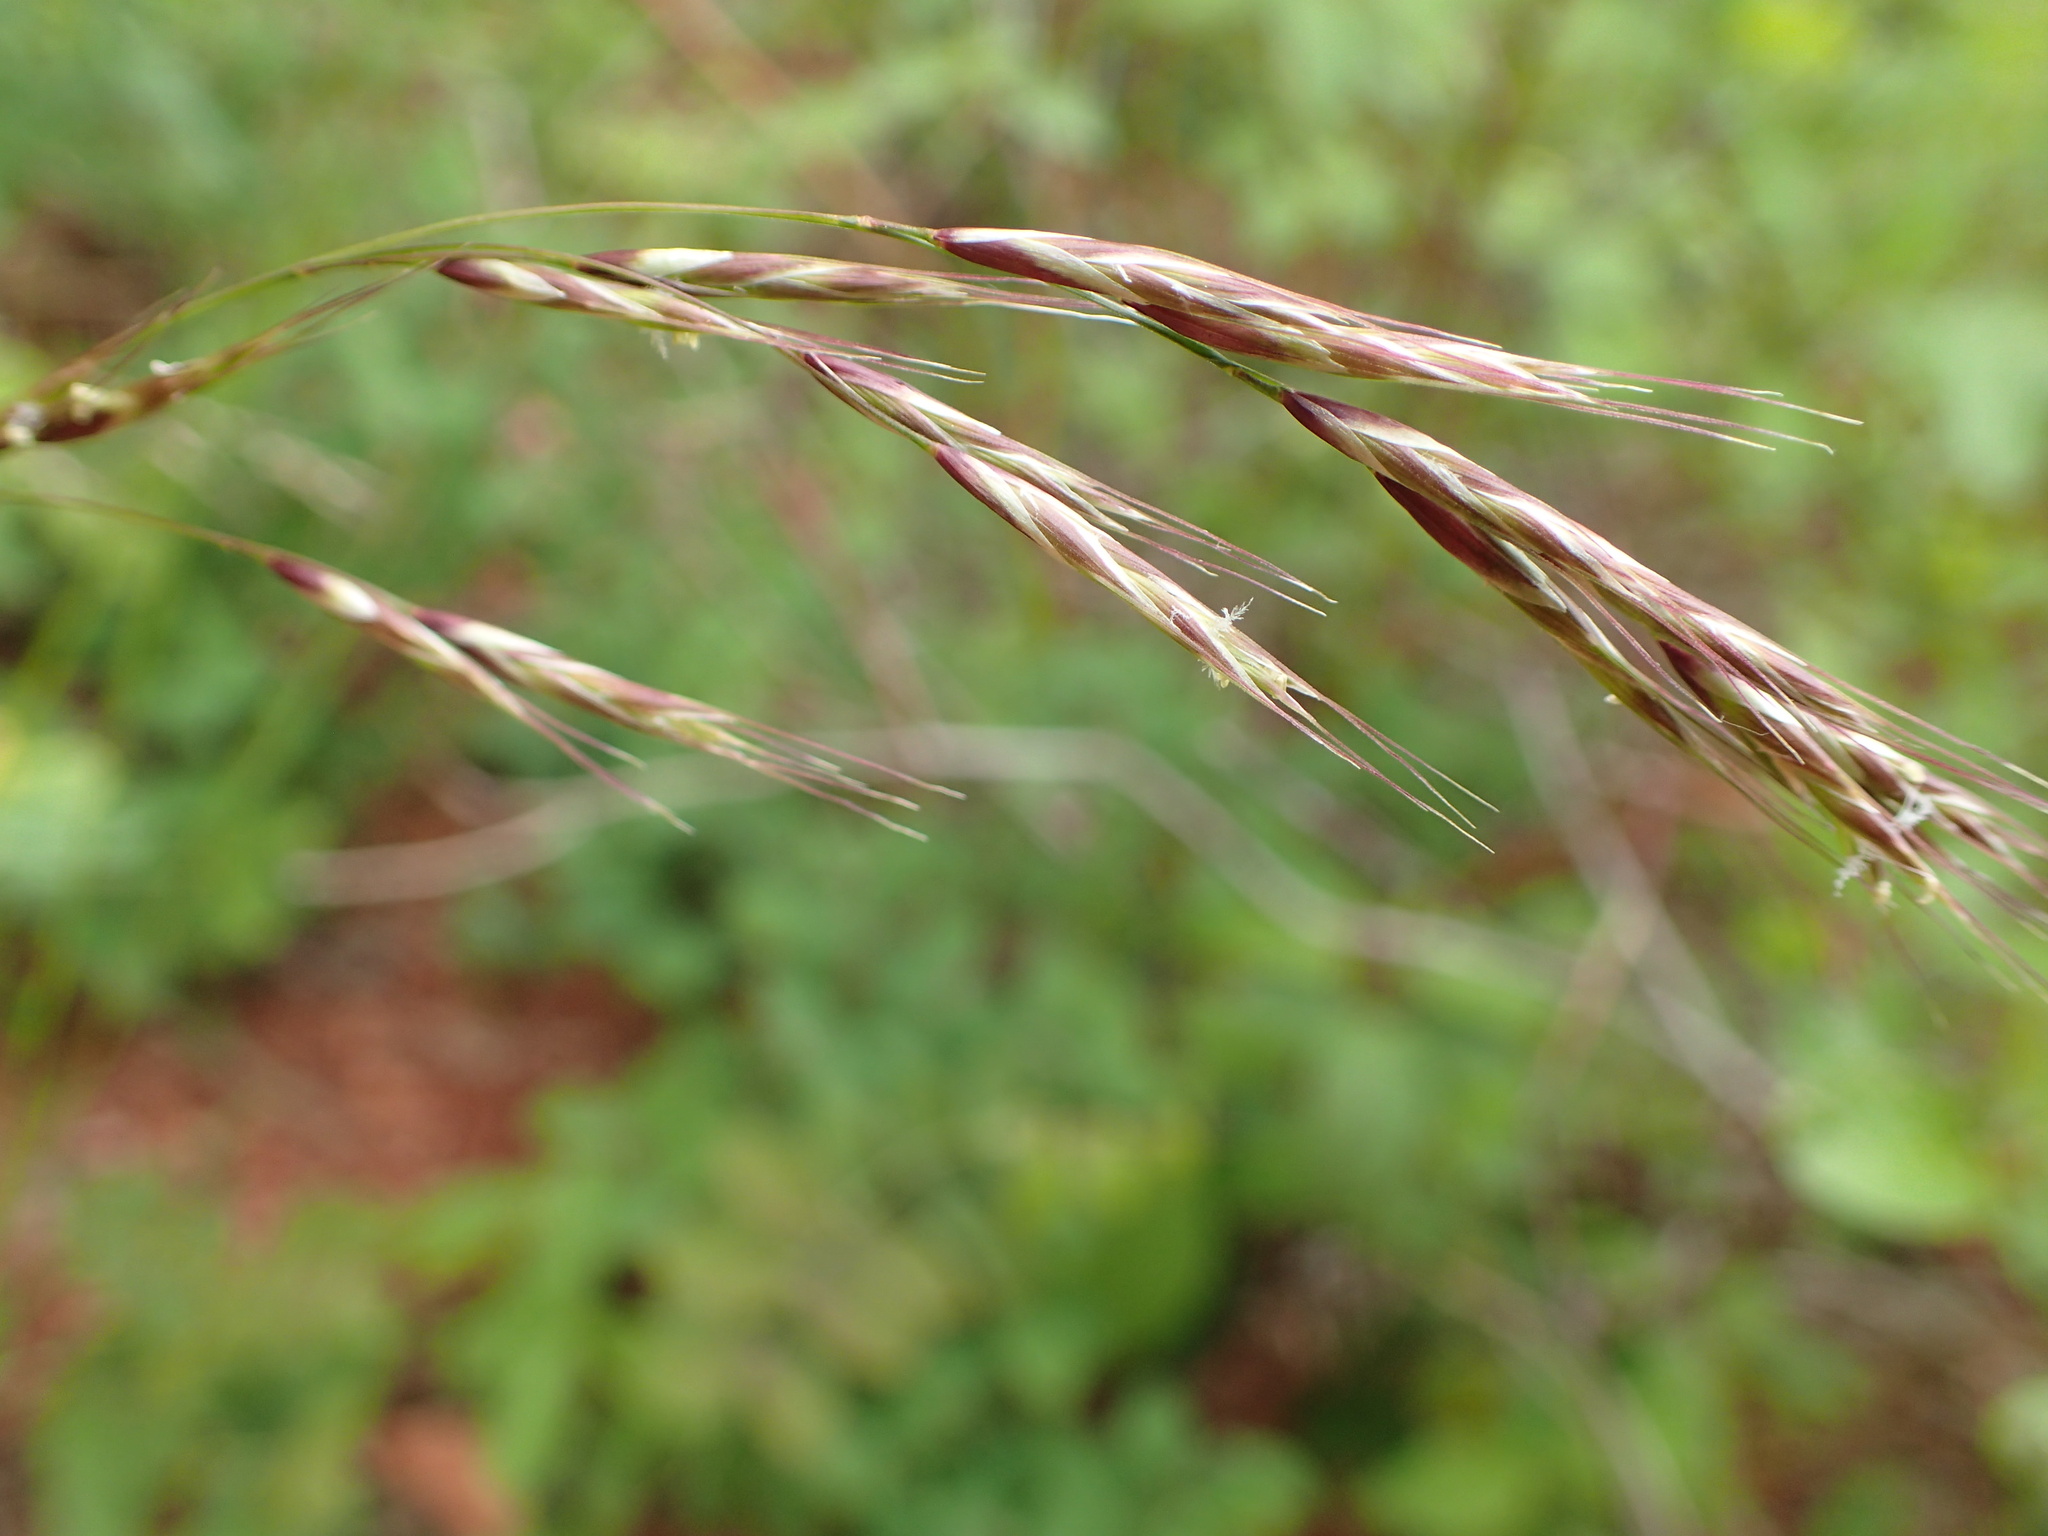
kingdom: Plantae
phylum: Tracheophyta
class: Liliopsida
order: Poales
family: Poaceae
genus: Schizachne
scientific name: Schizachne purpurascens
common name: False melic
